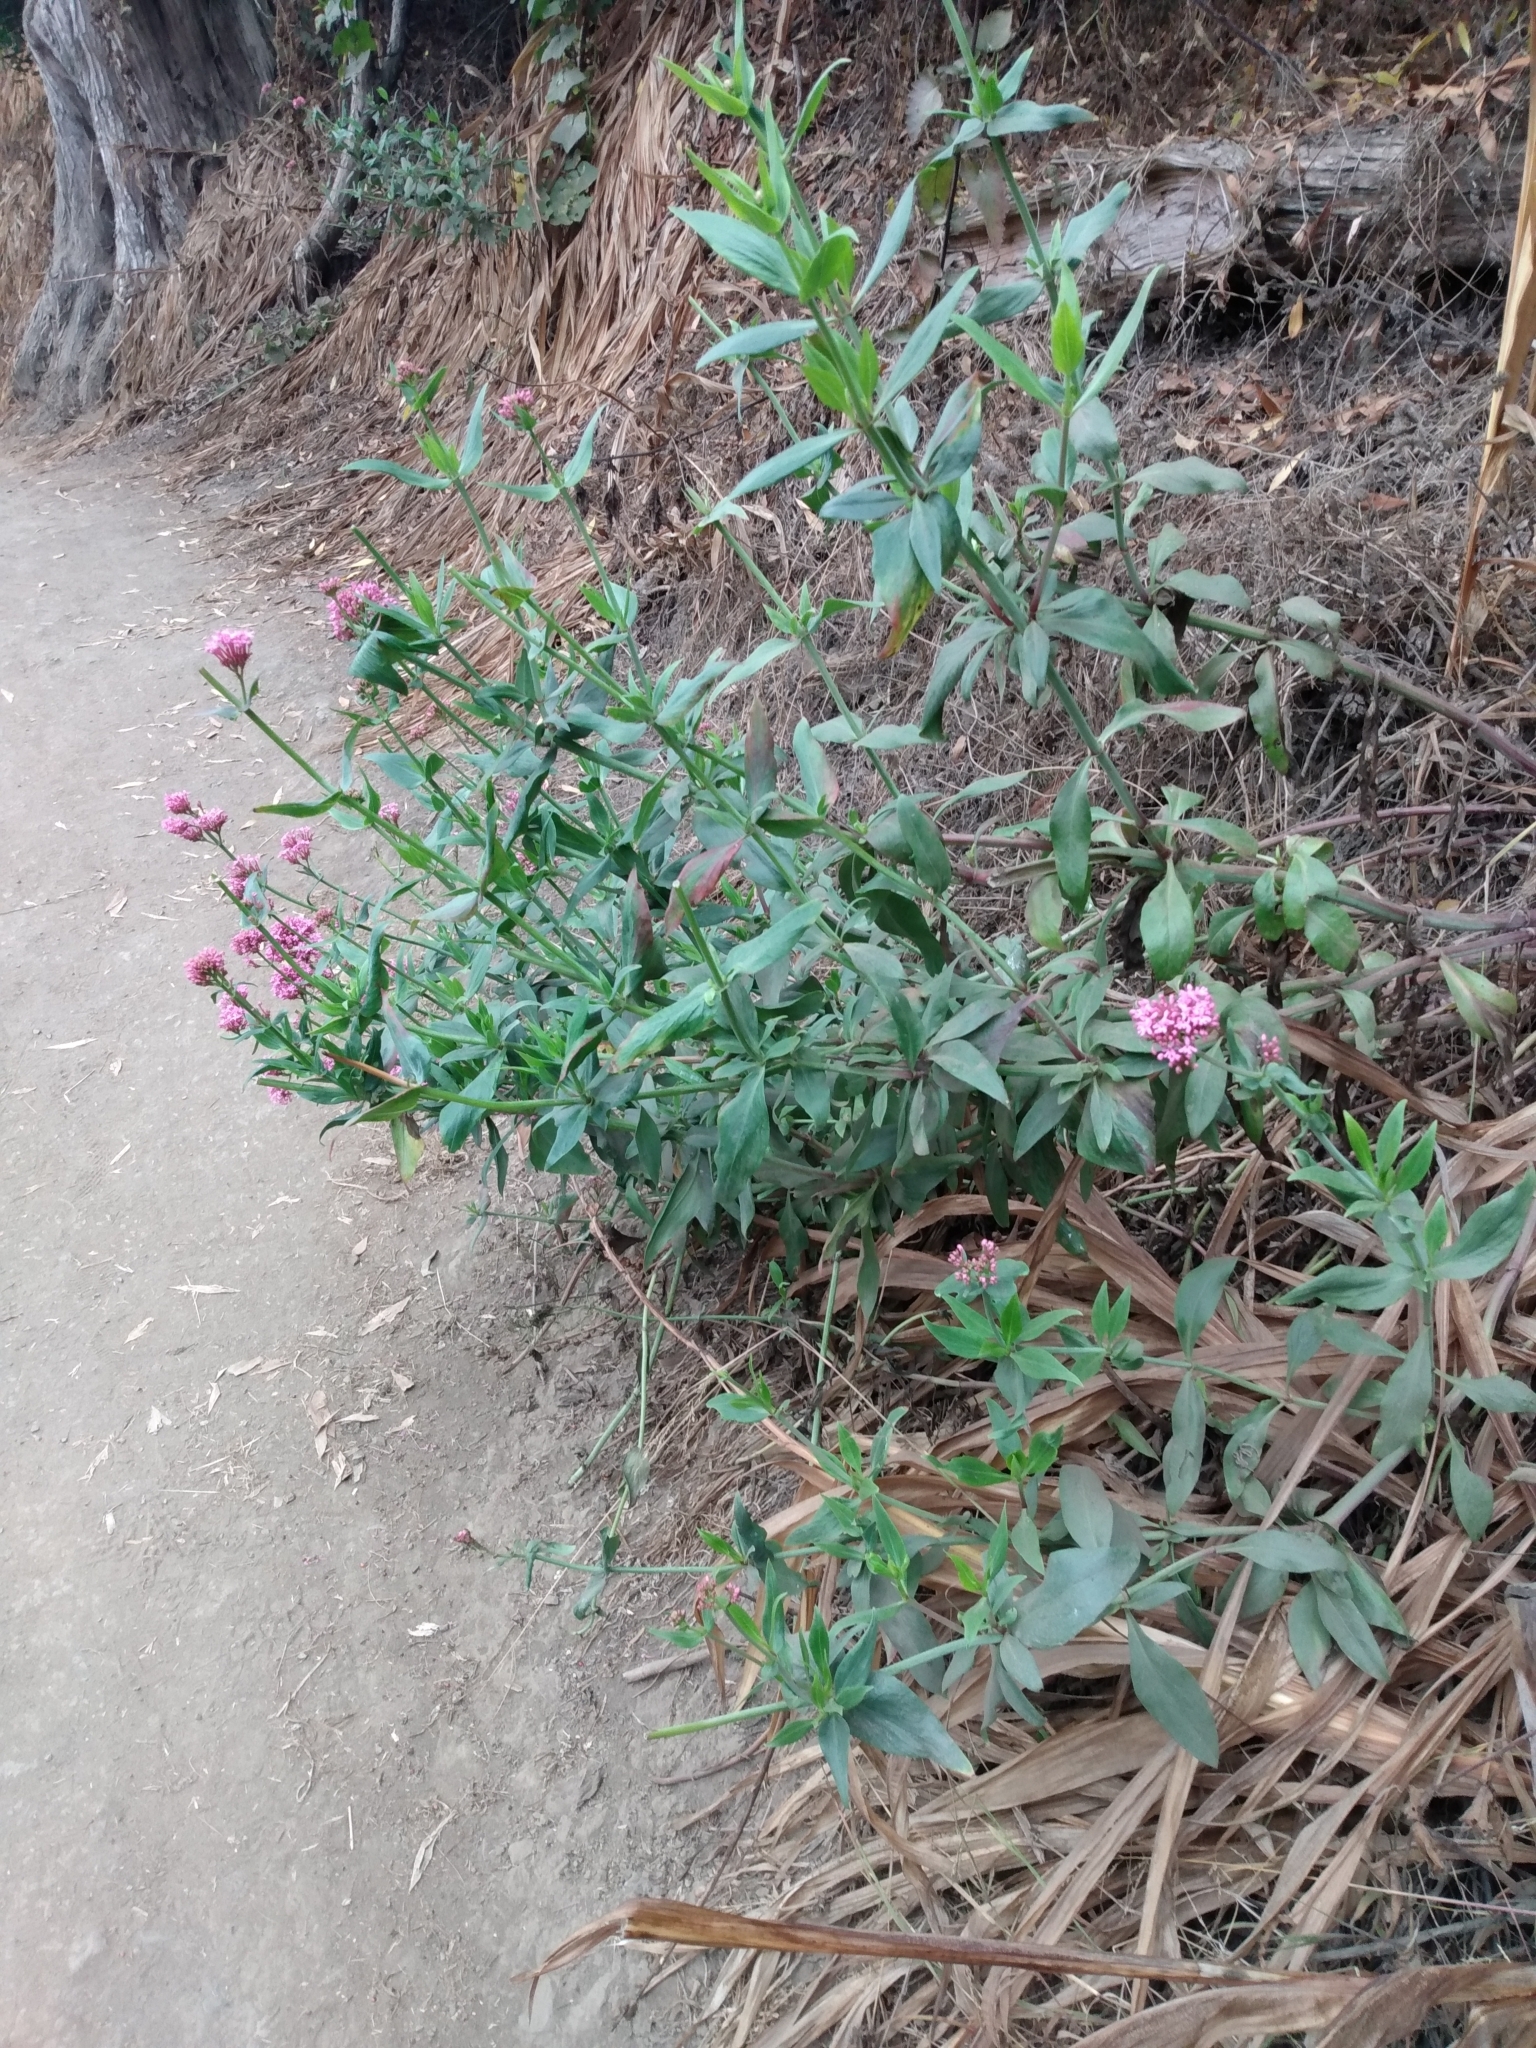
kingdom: Plantae
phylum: Tracheophyta
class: Magnoliopsida
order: Dipsacales
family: Caprifoliaceae
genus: Centranthus
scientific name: Centranthus ruber
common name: Red valerian
